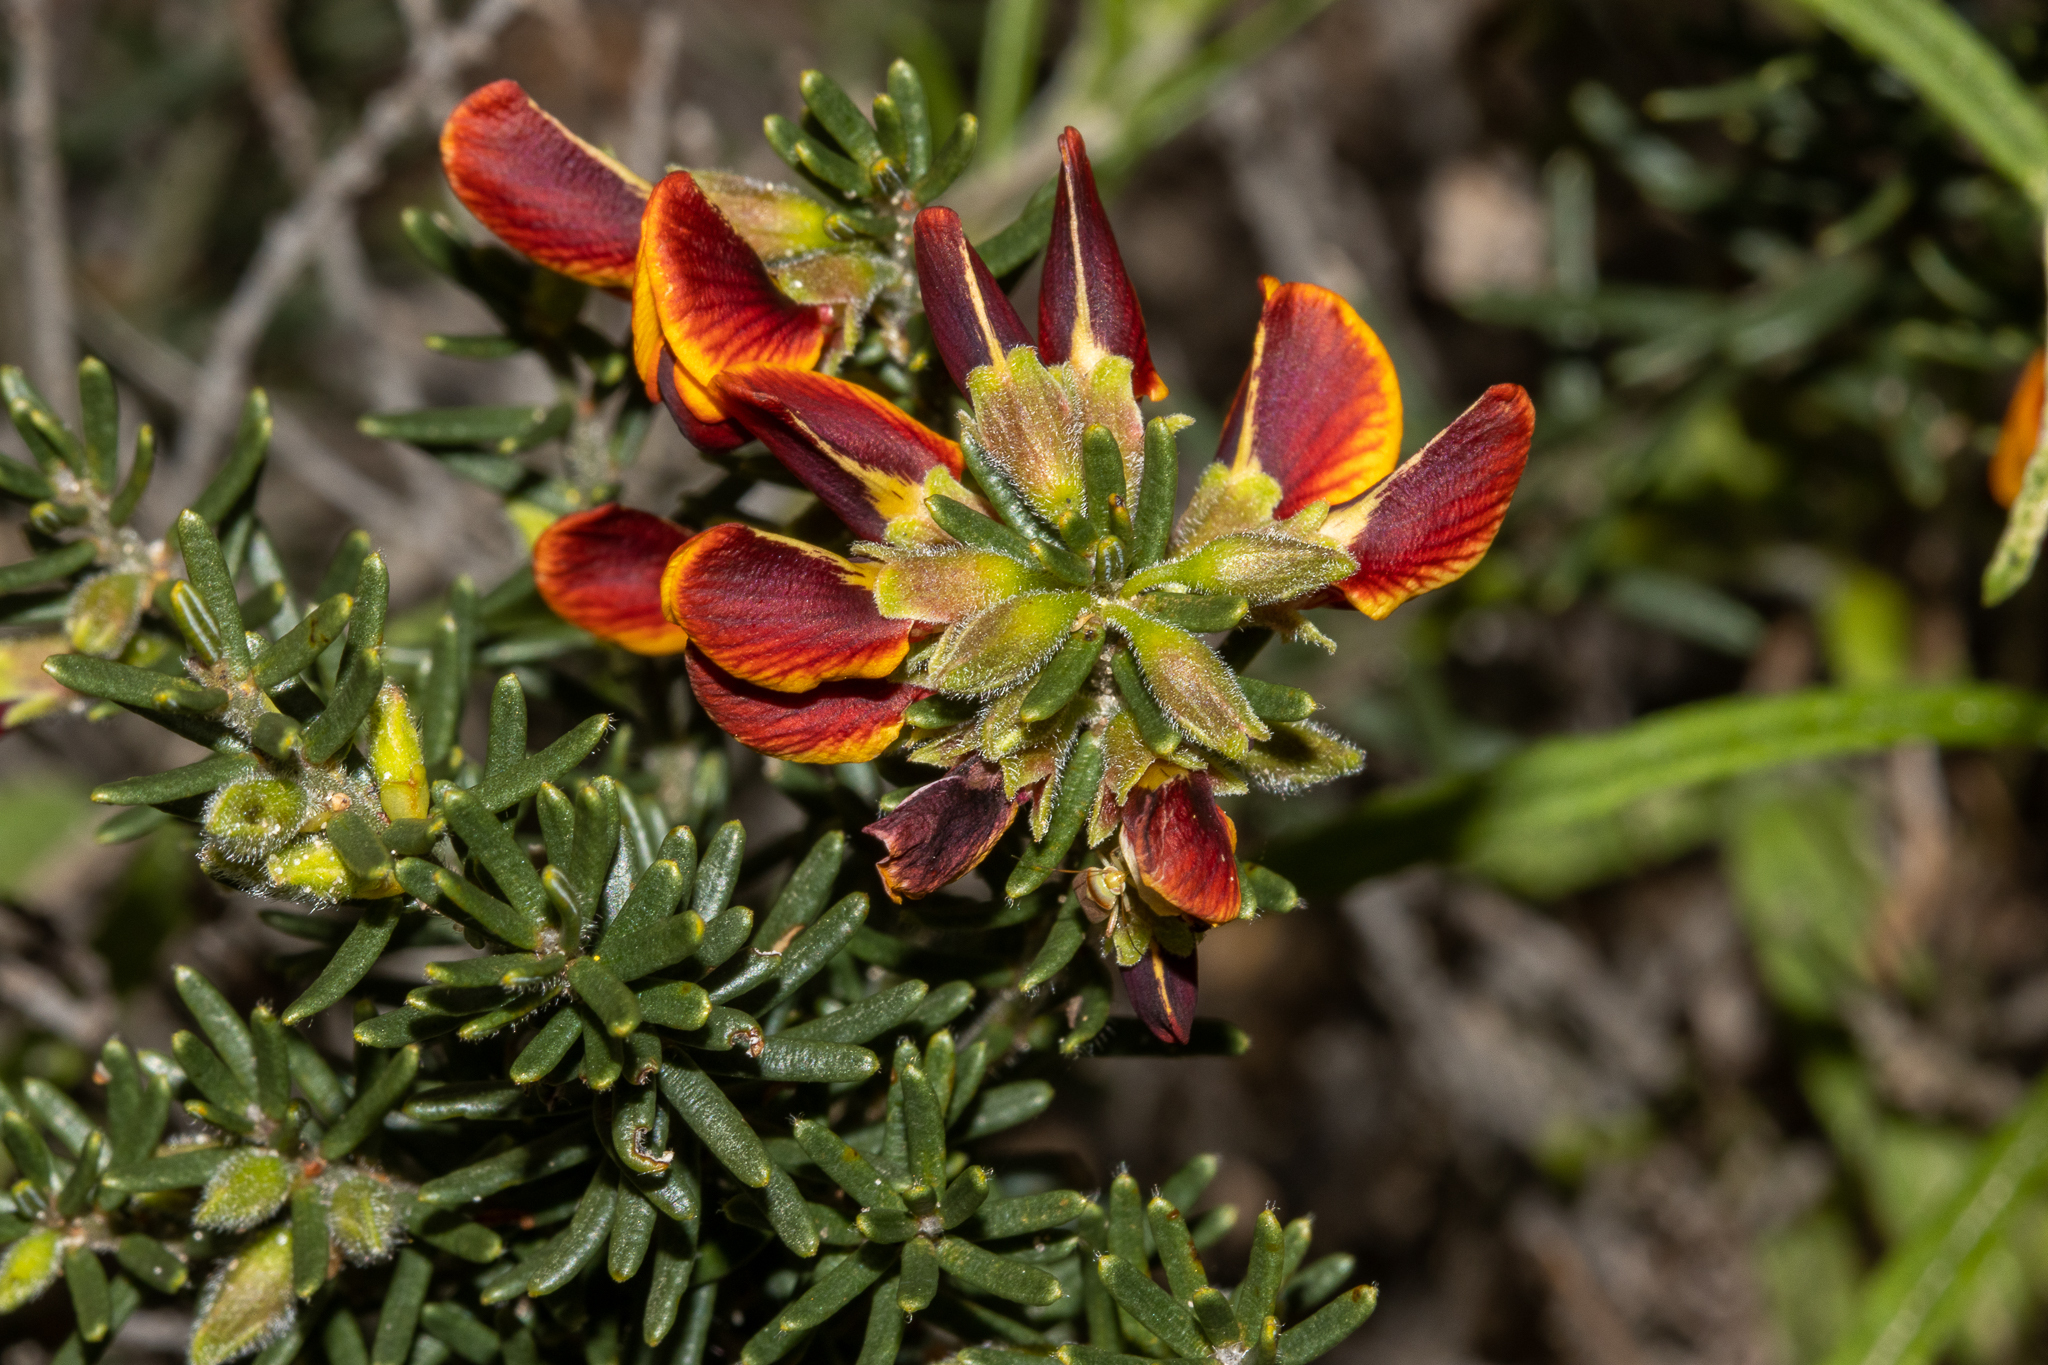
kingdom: Plantae
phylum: Tracheophyta
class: Magnoliopsida
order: Fabales
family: Fabaceae
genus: Aotus
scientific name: Aotus subspinescens
